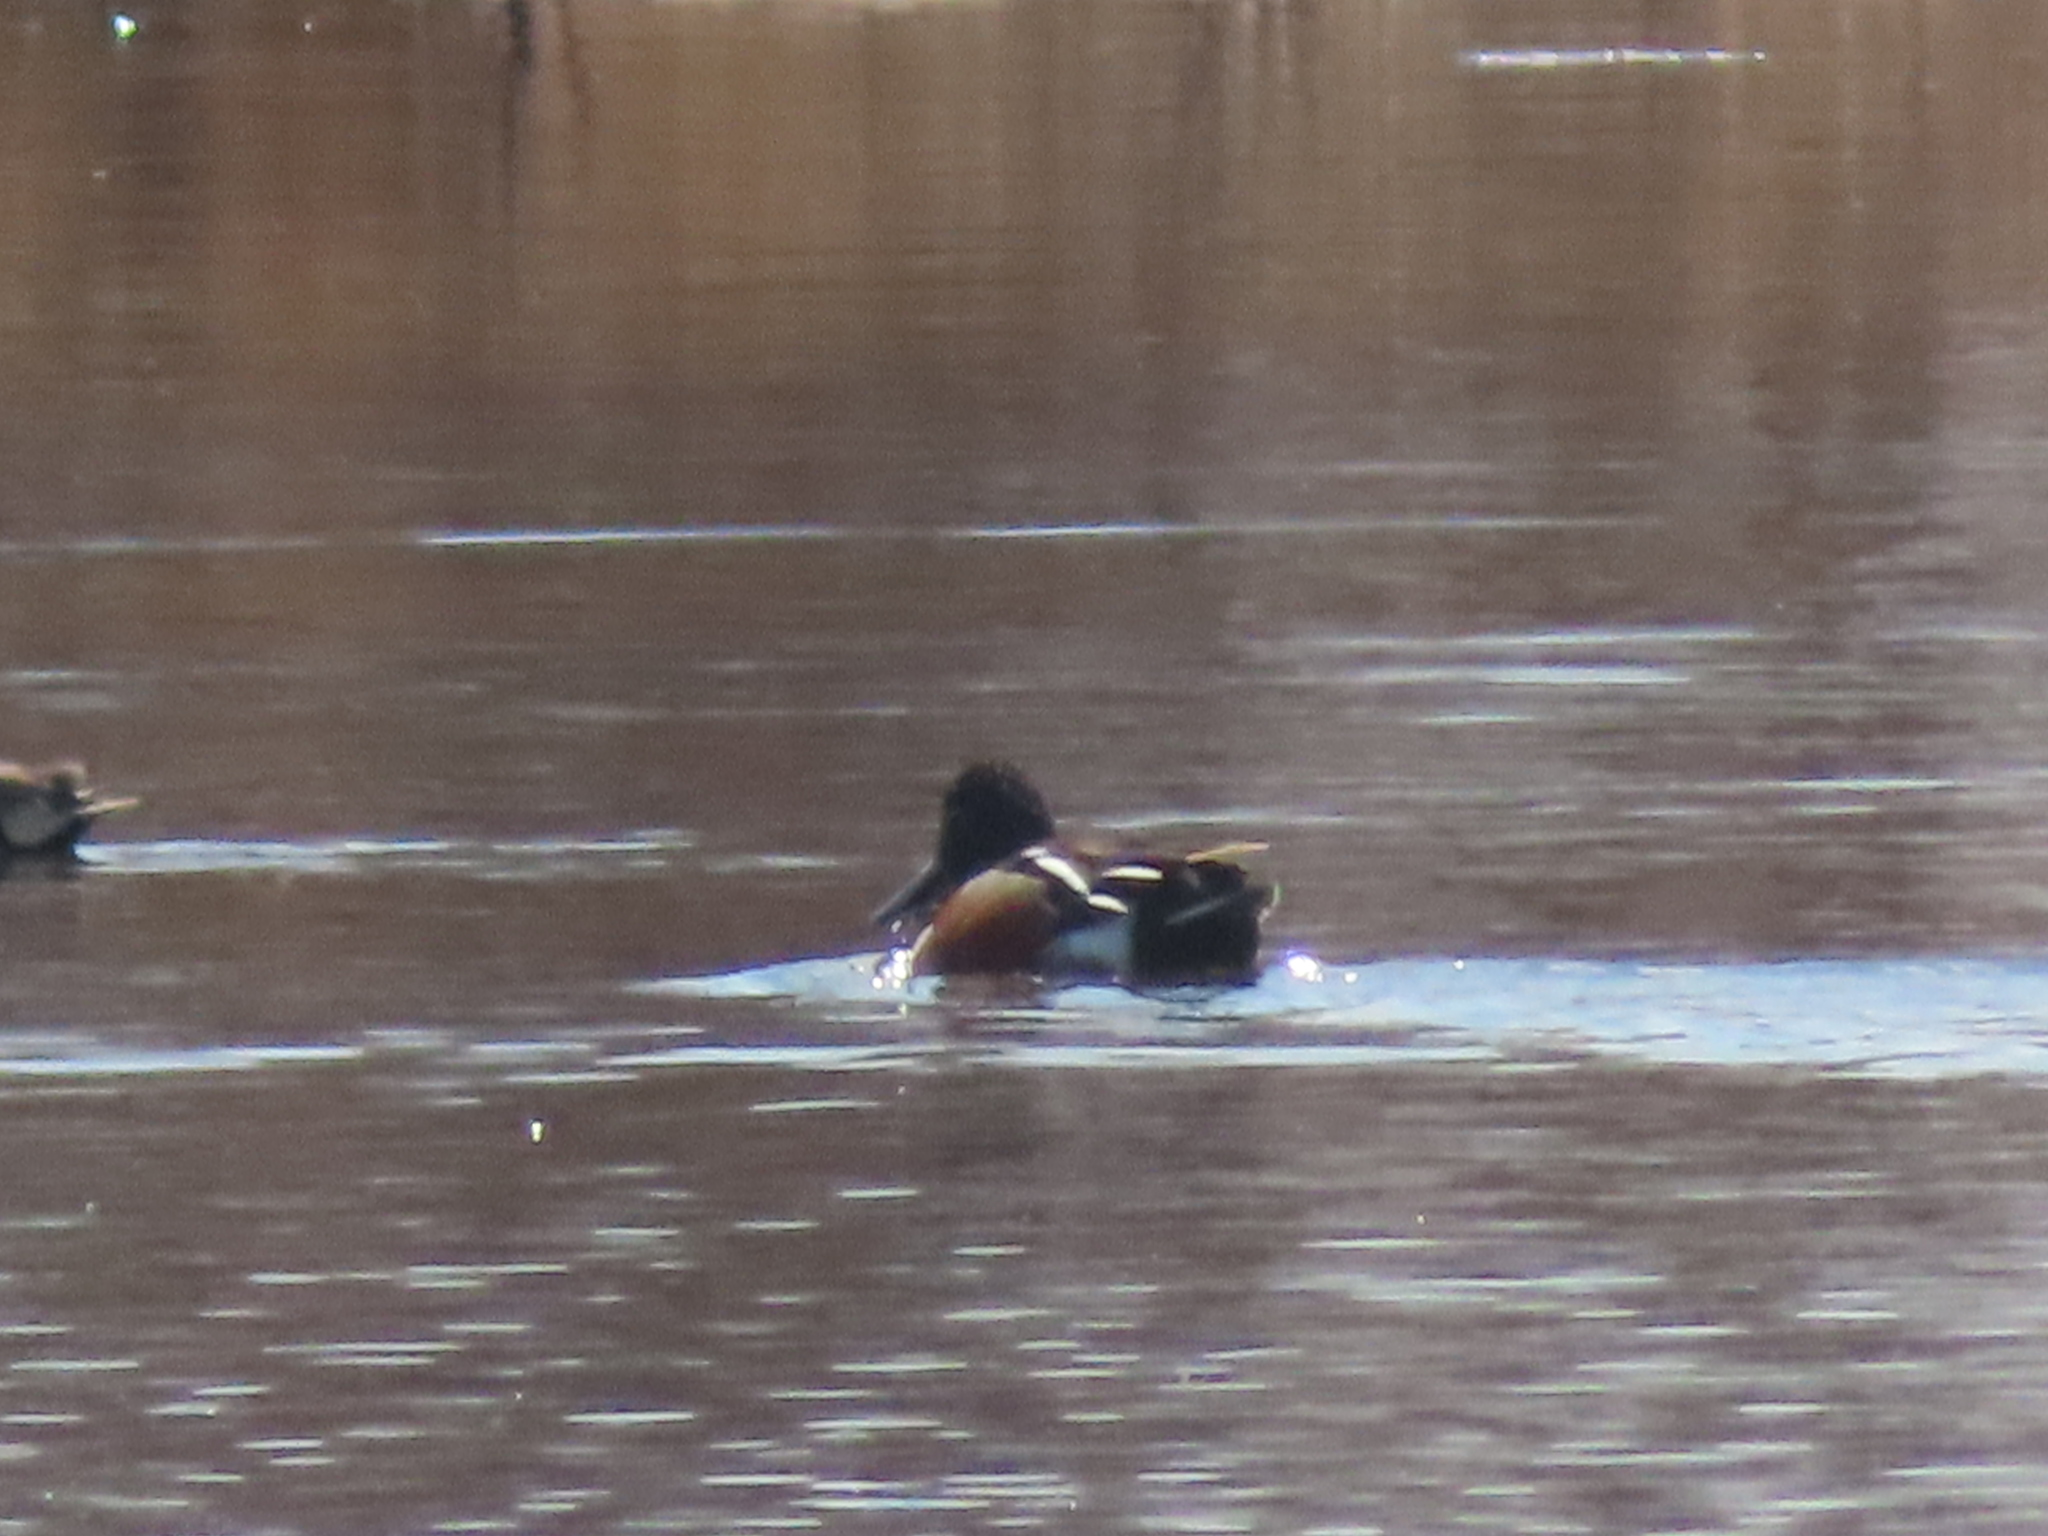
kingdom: Animalia
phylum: Chordata
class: Aves
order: Anseriformes
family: Anatidae
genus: Spatula
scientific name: Spatula clypeata
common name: Northern shoveler
